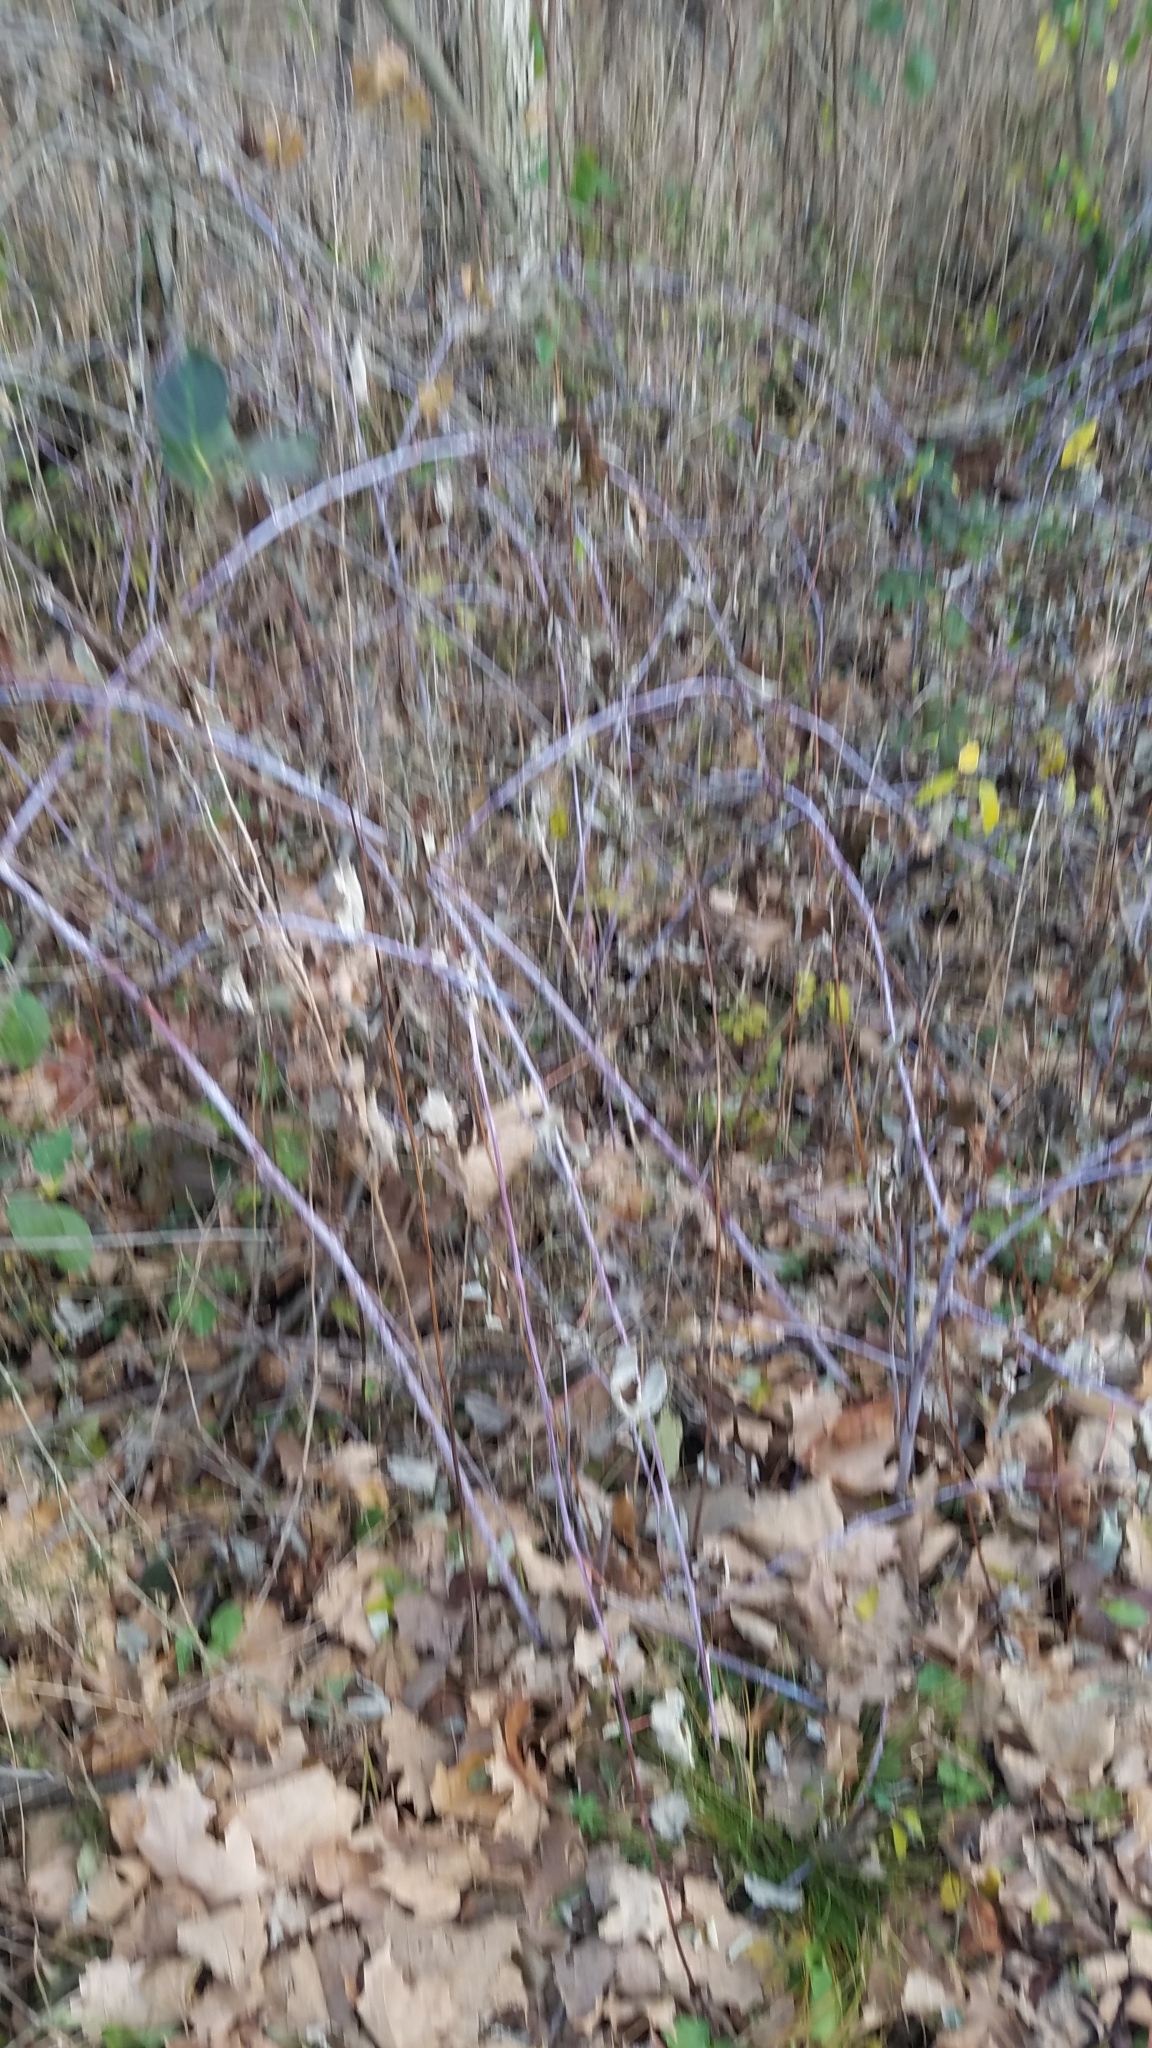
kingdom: Plantae
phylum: Tracheophyta
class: Magnoliopsida
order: Rosales
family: Rosaceae
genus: Rubus
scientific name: Rubus occidentalis
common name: Black raspberry
